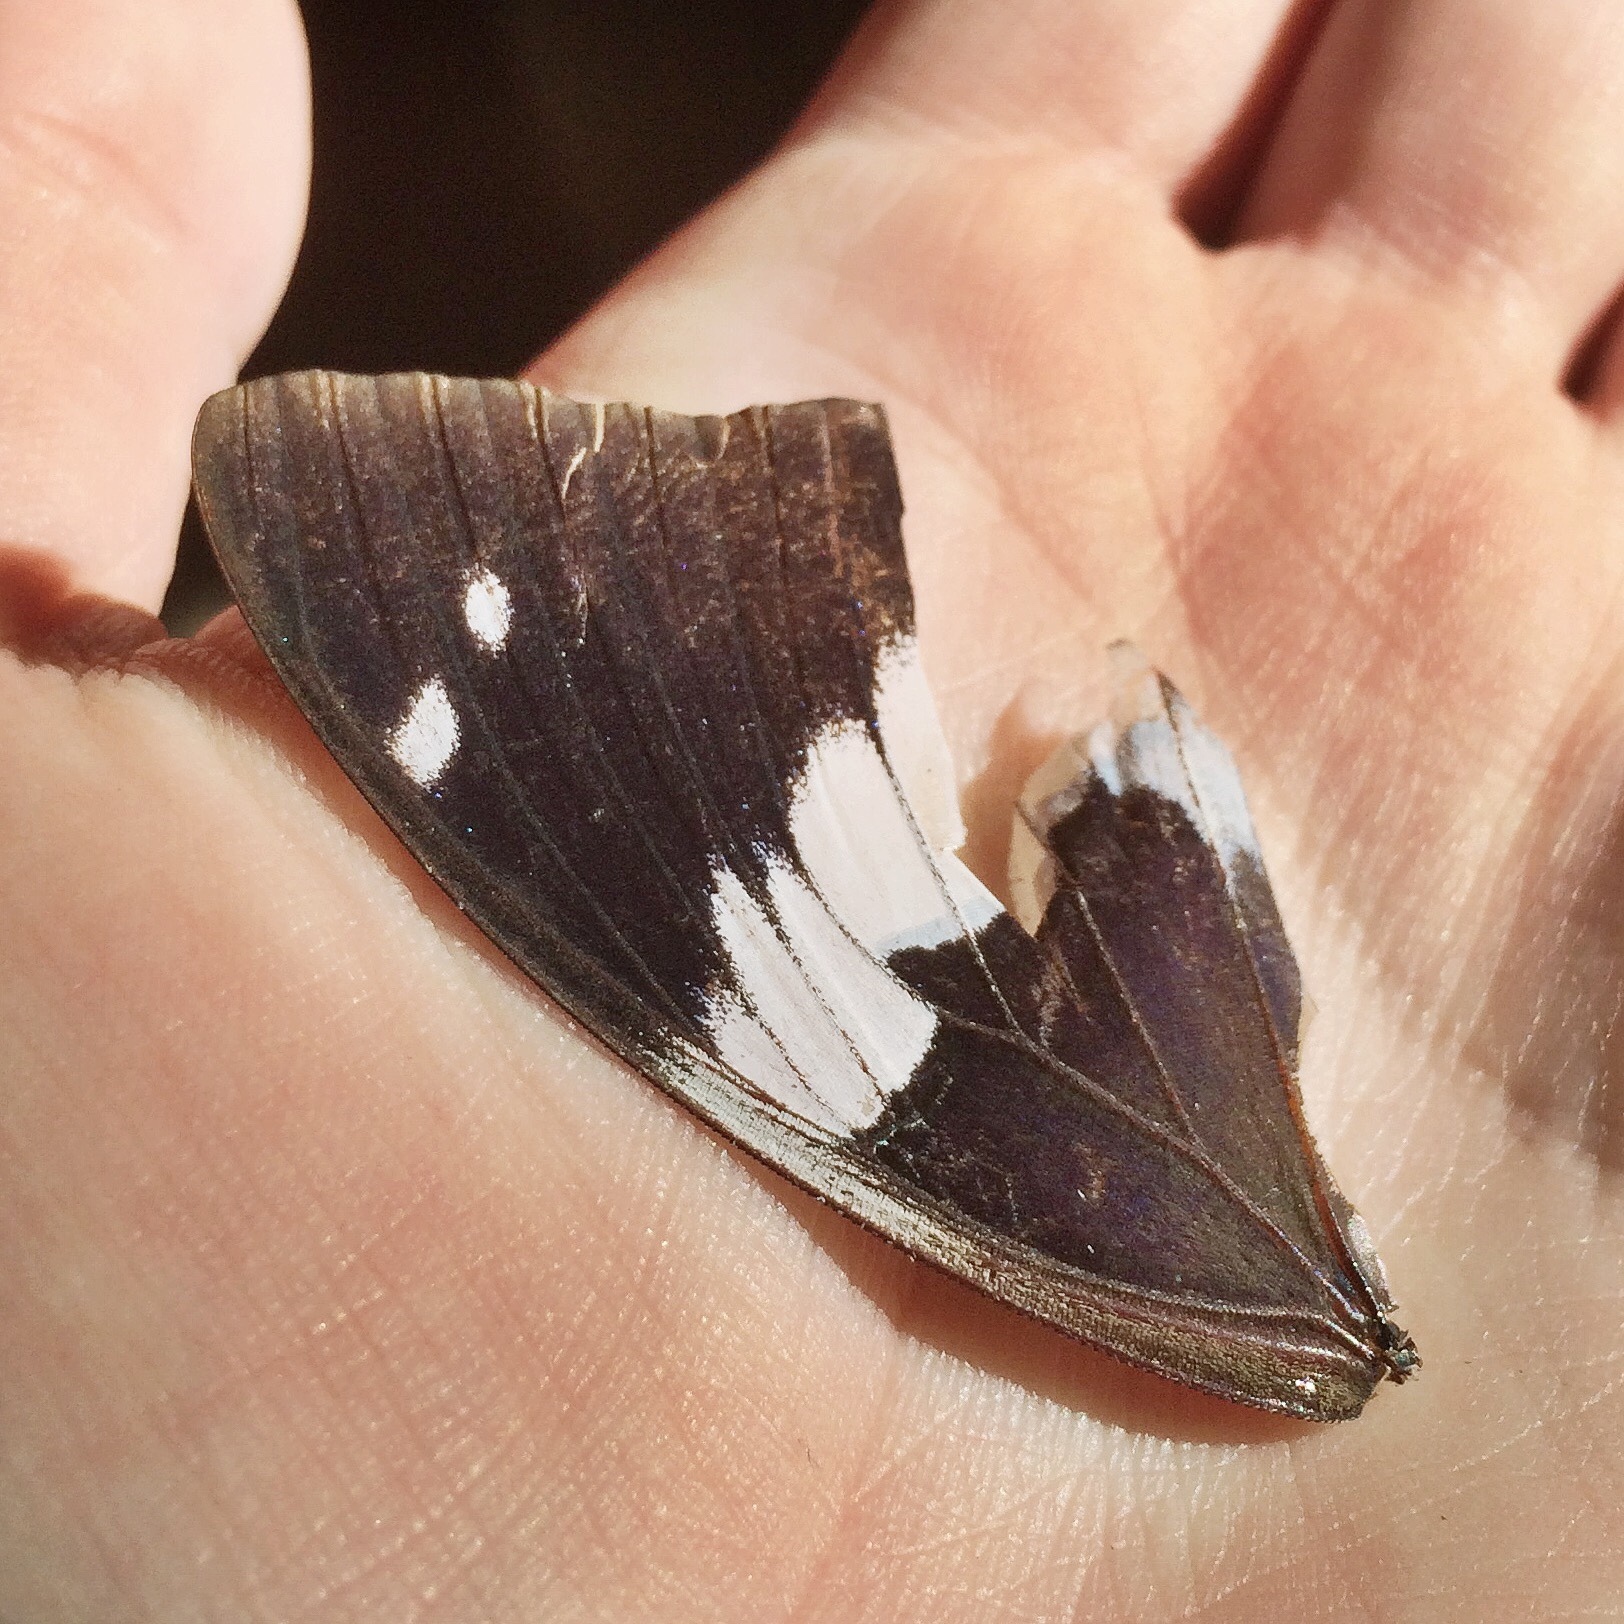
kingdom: Animalia
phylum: Arthropoda
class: Insecta
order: Lepidoptera
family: Nymphalidae
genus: Charaxes
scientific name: Charaxes cithaeron
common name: Blue-spotted charaxes
